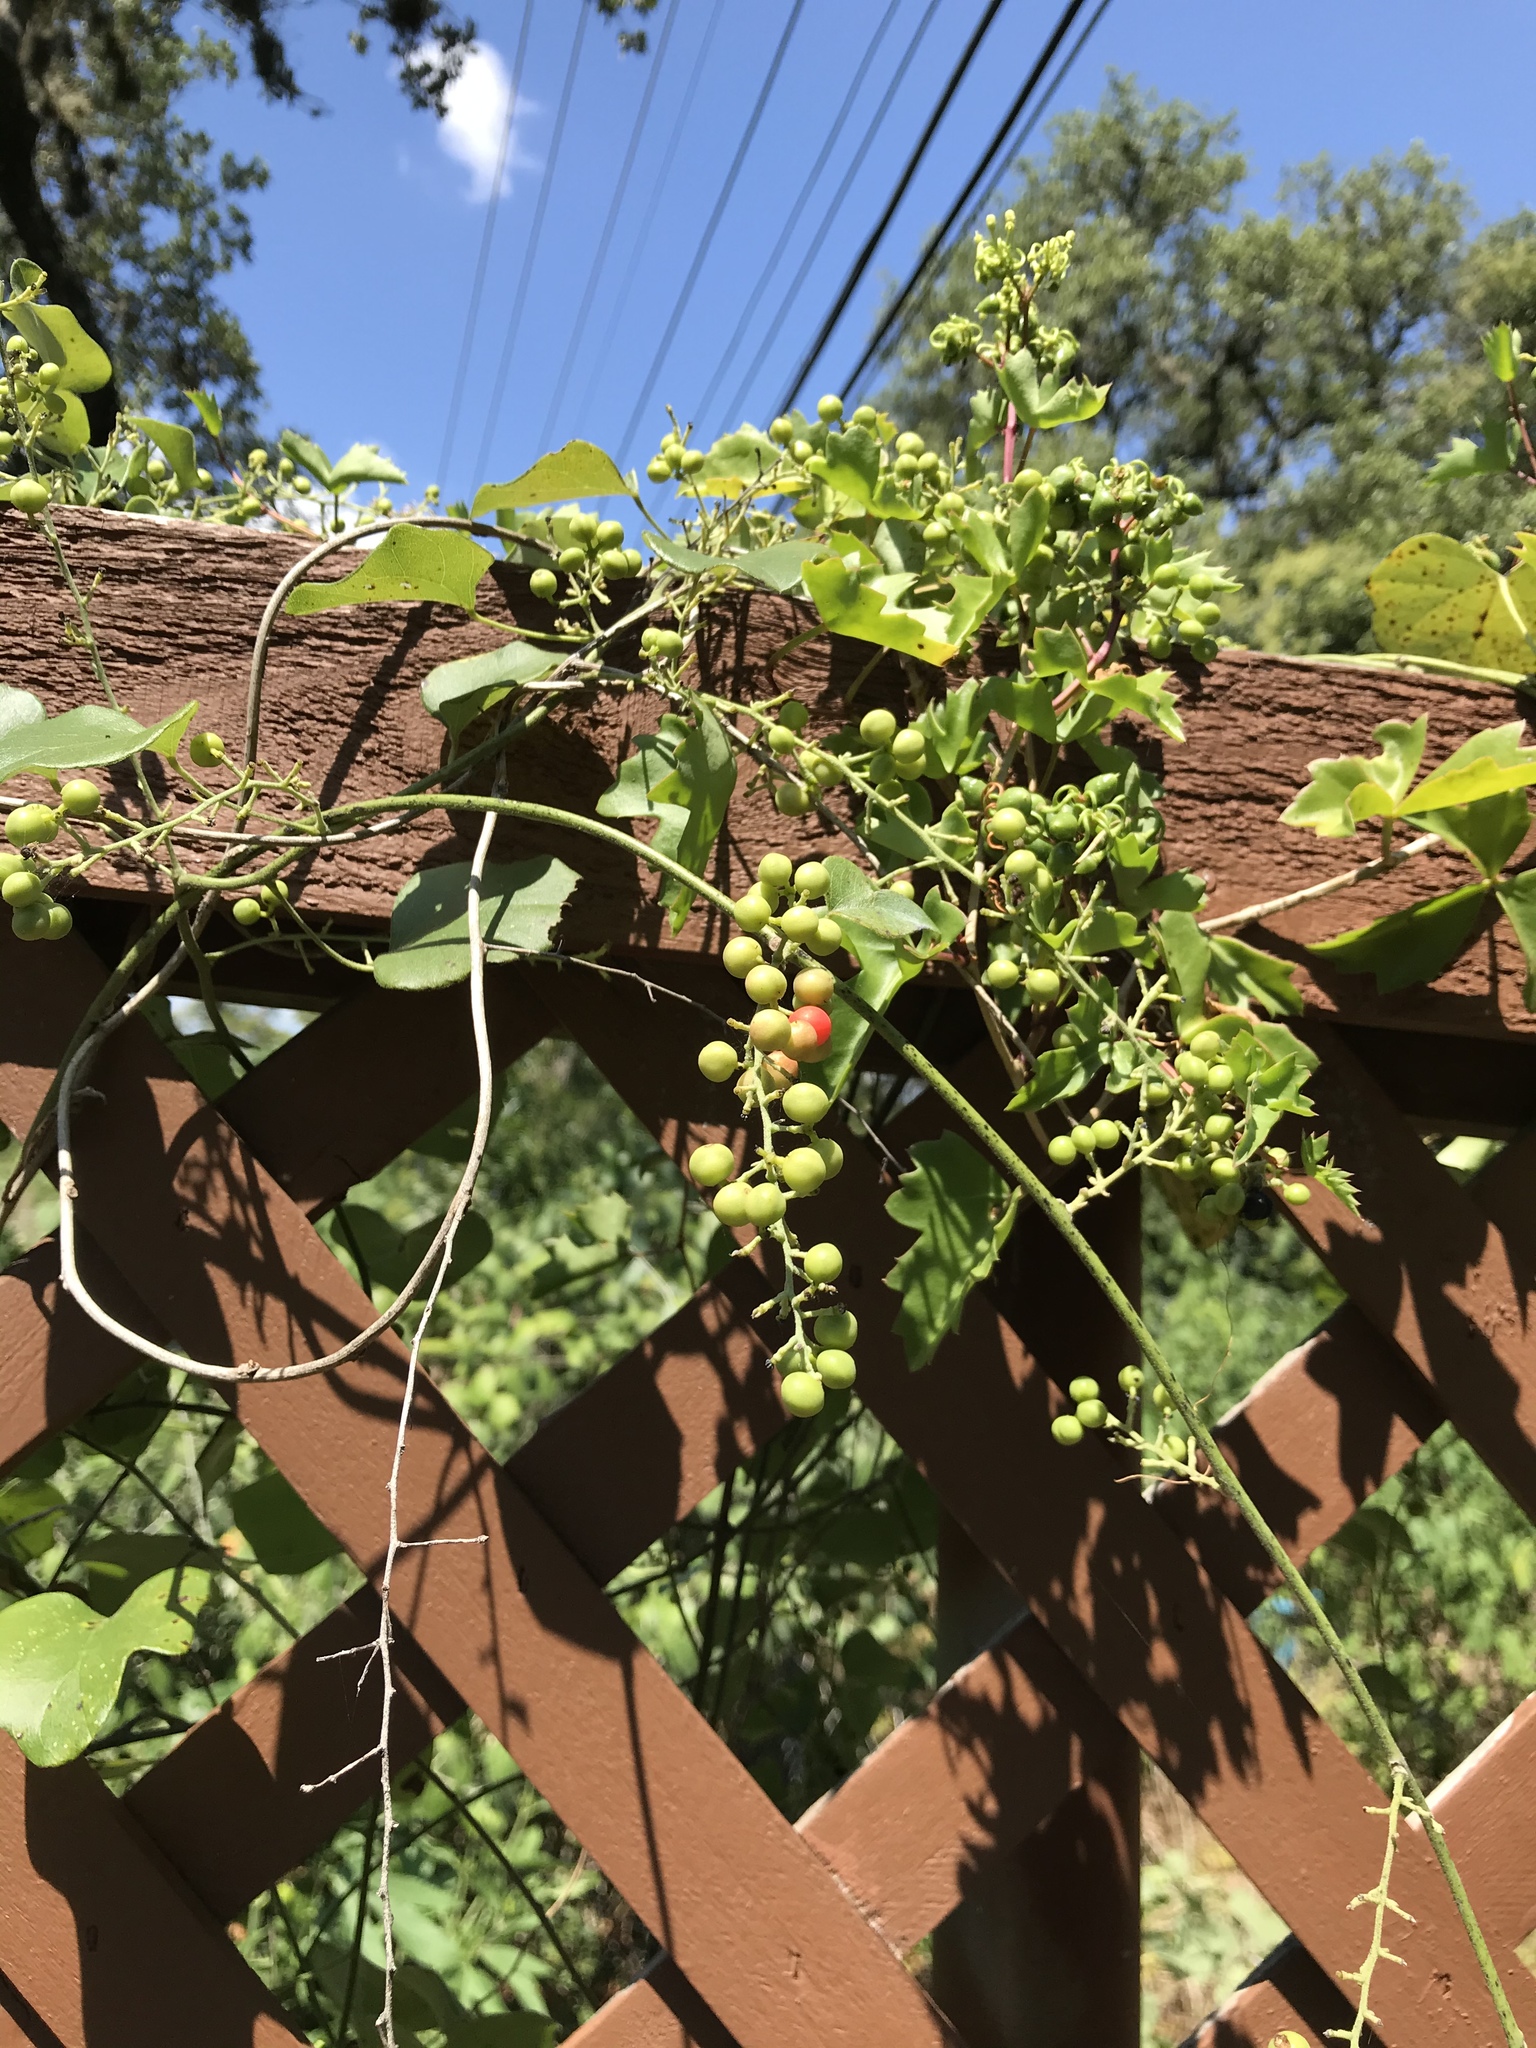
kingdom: Plantae
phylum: Tracheophyta
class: Magnoliopsida
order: Ranunculales
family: Menispermaceae
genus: Cocculus
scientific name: Cocculus carolinus
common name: Carolina moonseed
